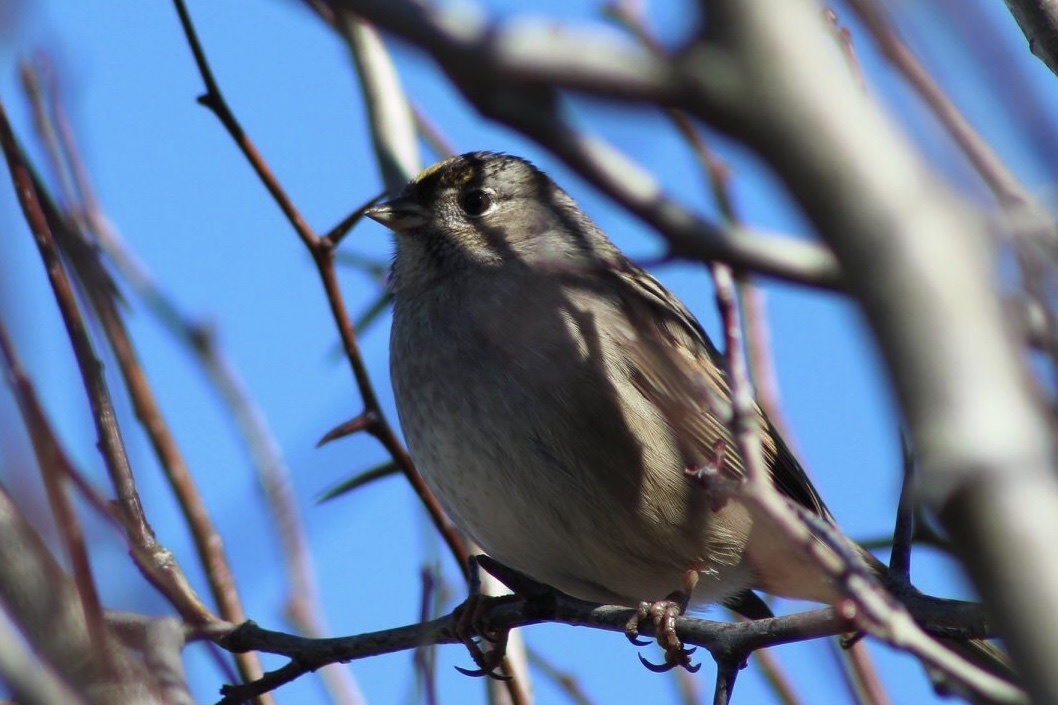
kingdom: Animalia
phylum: Chordata
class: Aves
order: Passeriformes
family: Passerellidae
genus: Zonotrichia
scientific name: Zonotrichia atricapilla
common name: Golden-crowned sparrow
